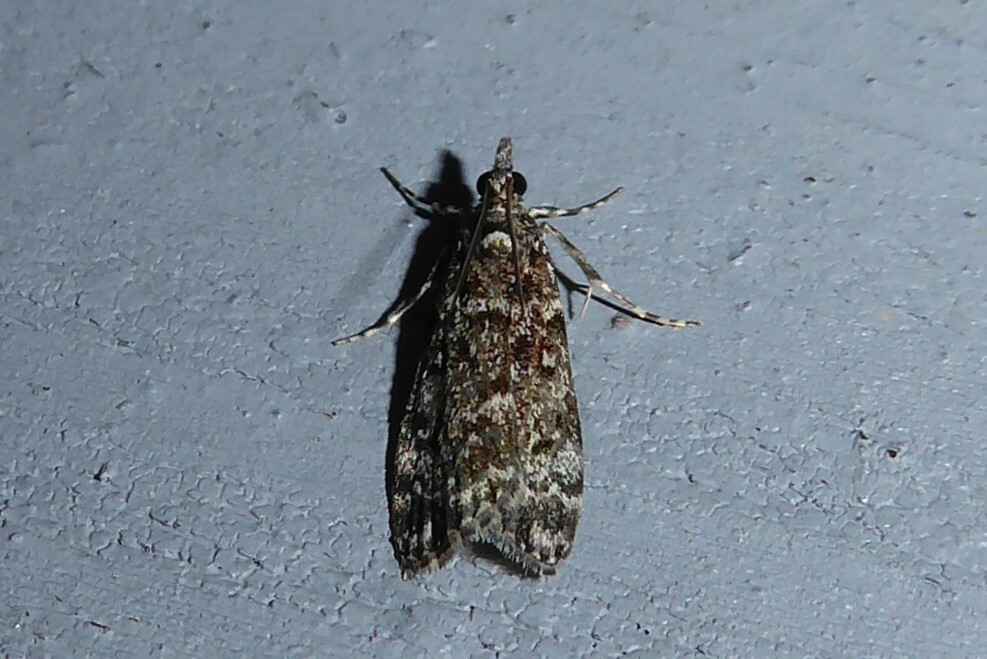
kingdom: Animalia
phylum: Arthropoda
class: Insecta
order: Lepidoptera
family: Crambidae
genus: Eudonia
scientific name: Eudonia philerga
